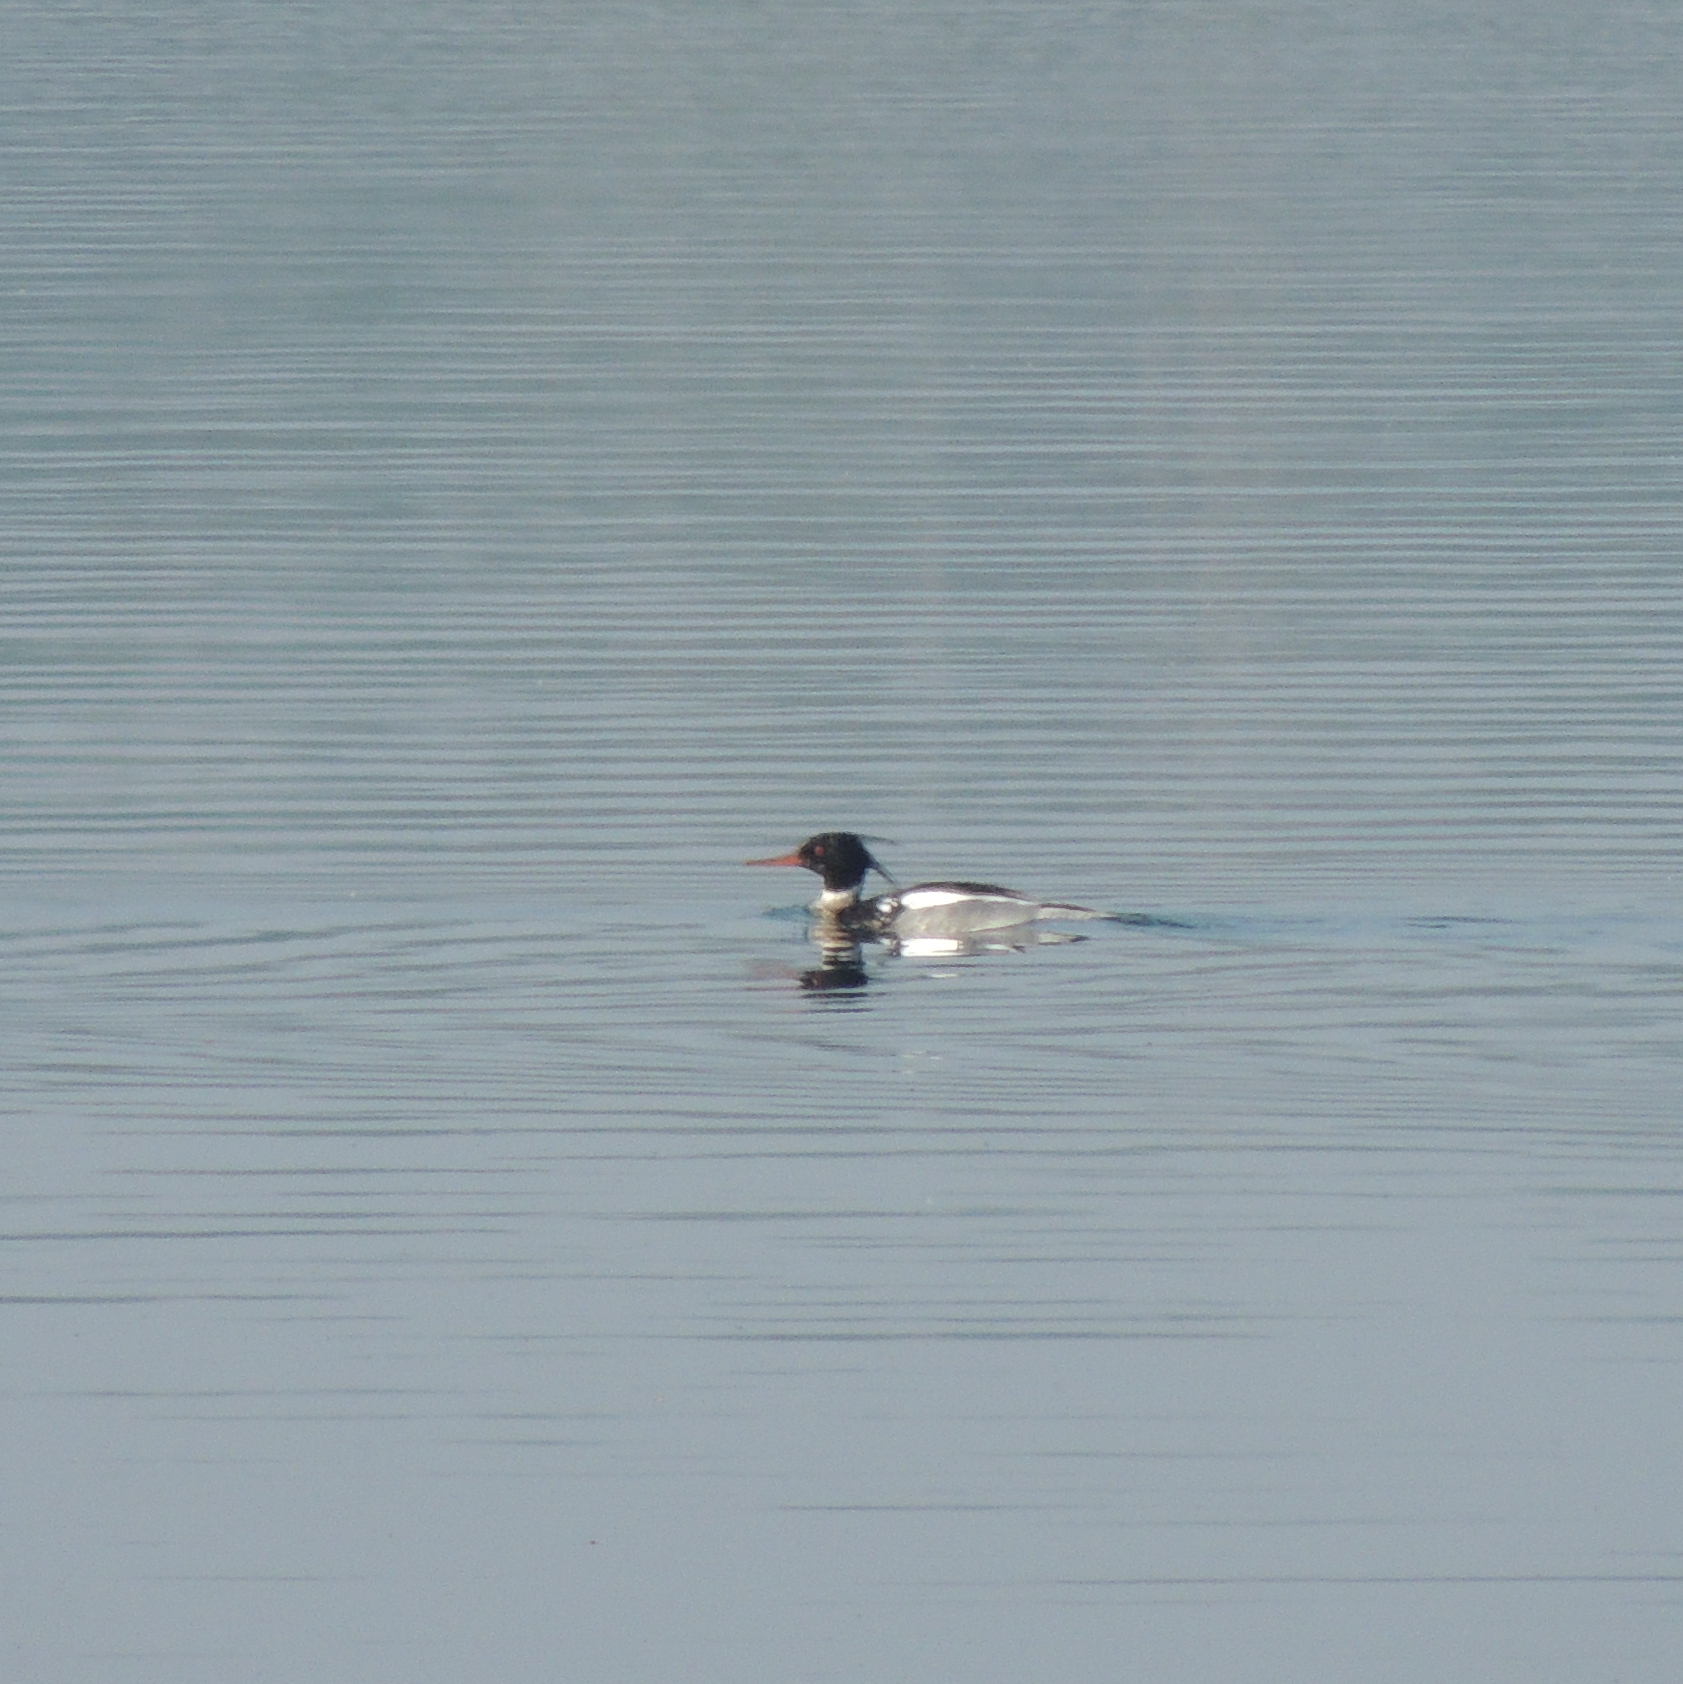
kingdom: Animalia
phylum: Chordata
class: Aves
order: Anseriformes
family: Anatidae
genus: Mergus
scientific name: Mergus serrator
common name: Red-breasted merganser
